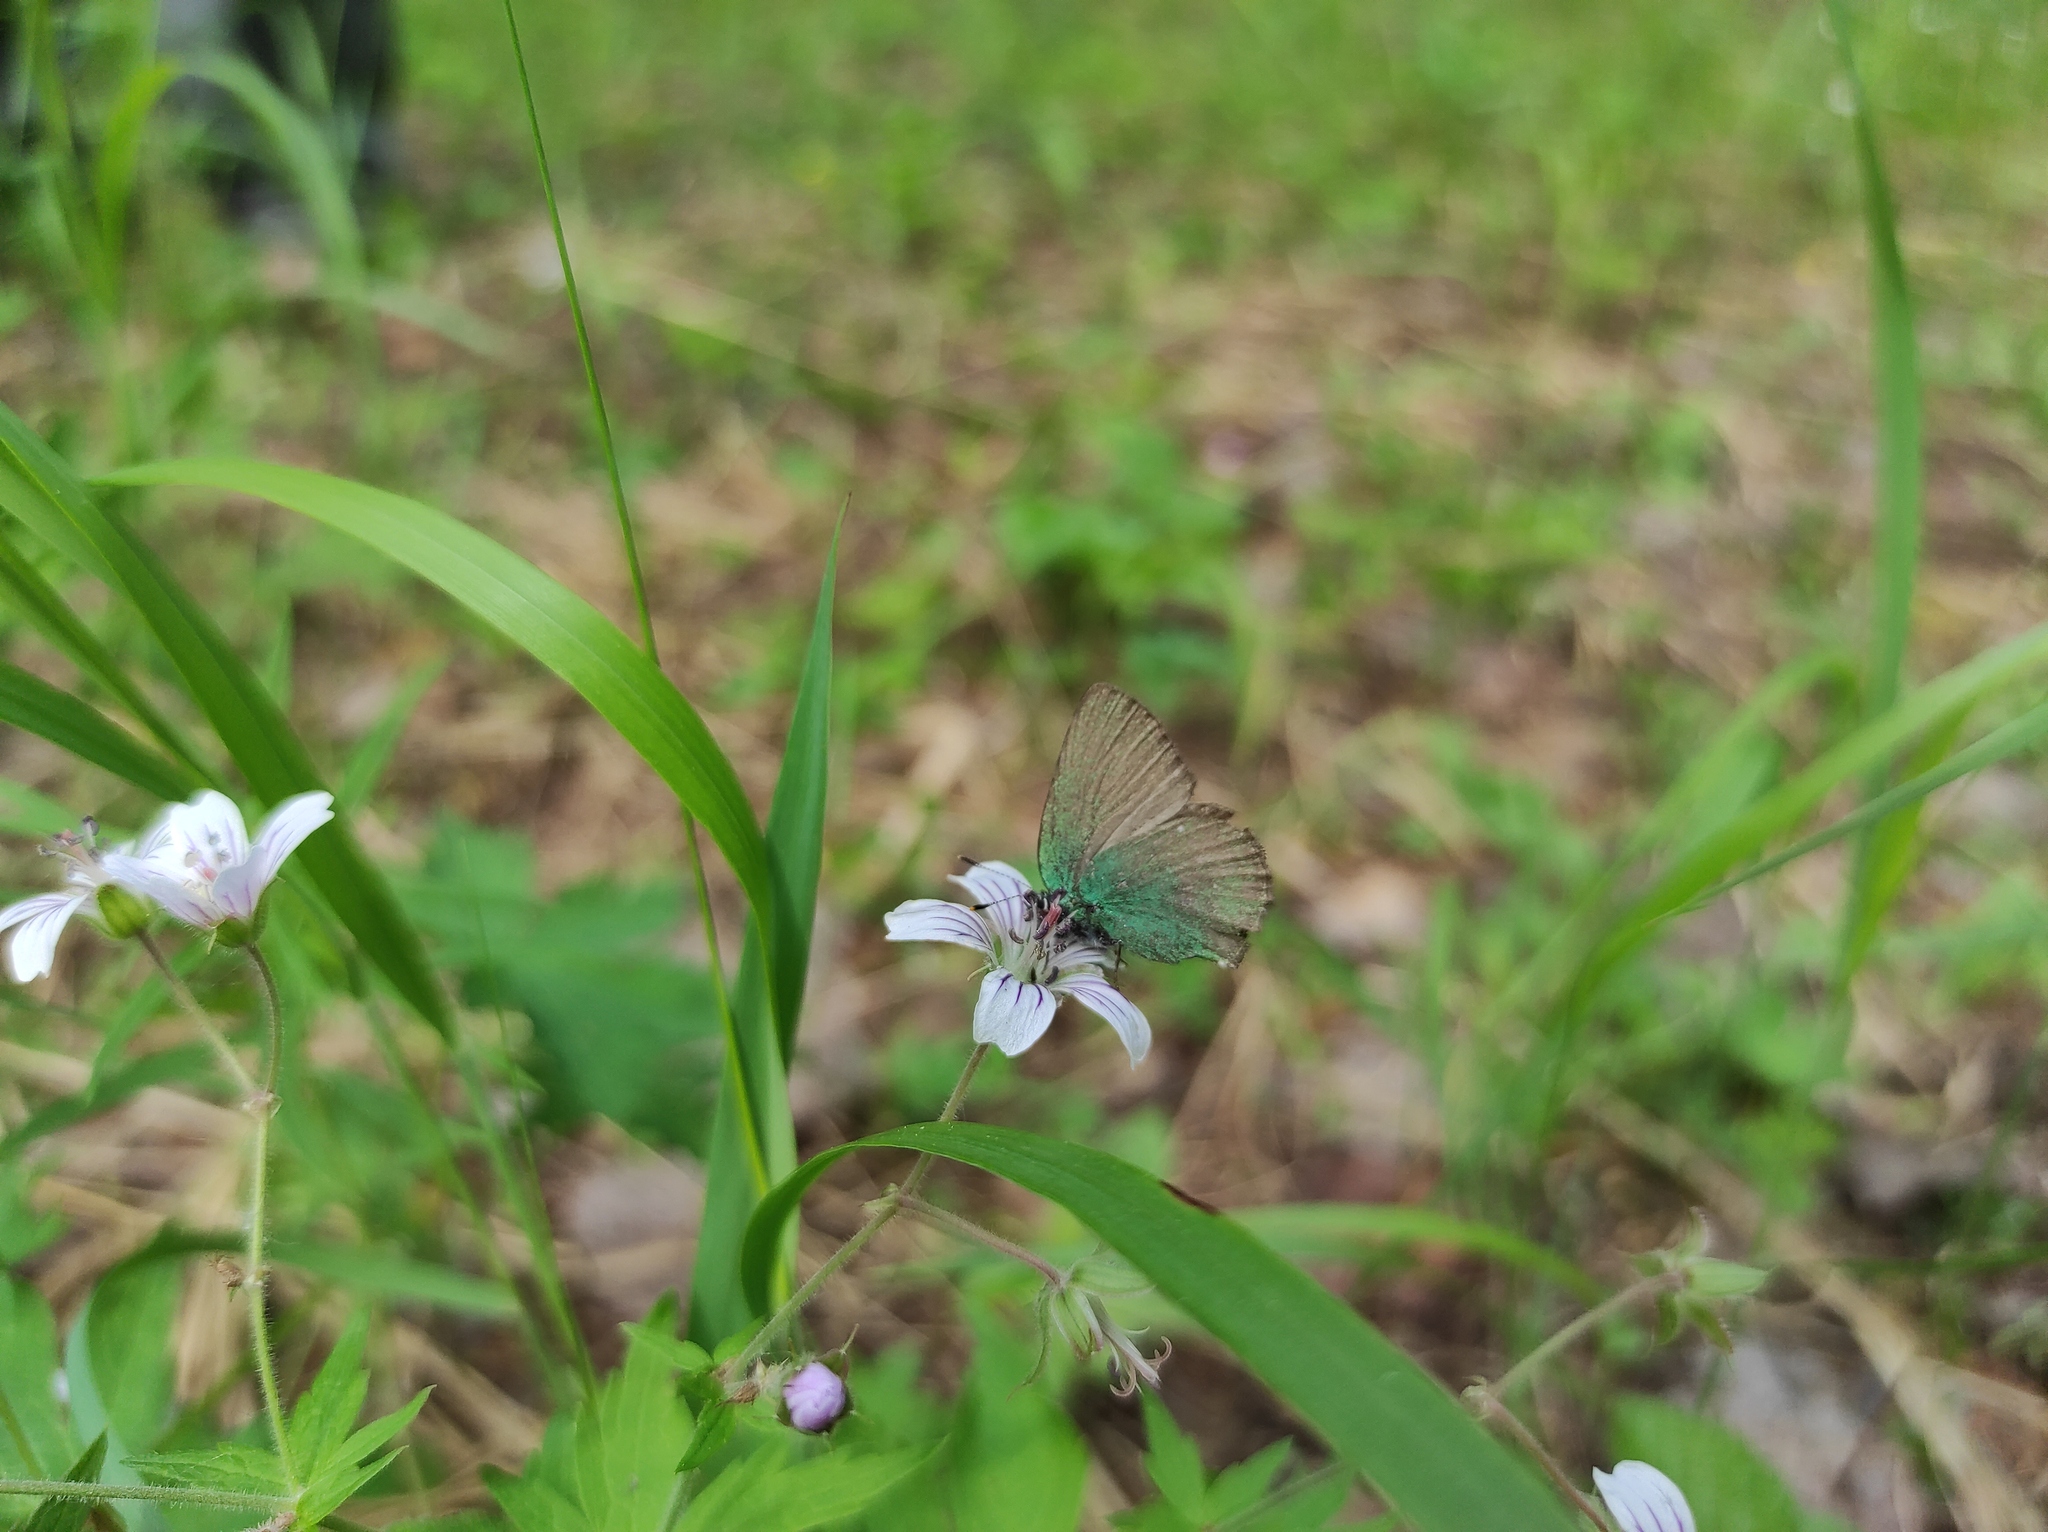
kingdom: Animalia
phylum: Arthropoda
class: Insecta
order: Lepidoptera
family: Lycaenidae
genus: Callophrys
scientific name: Callophrys rubi
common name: Green hairstreak
